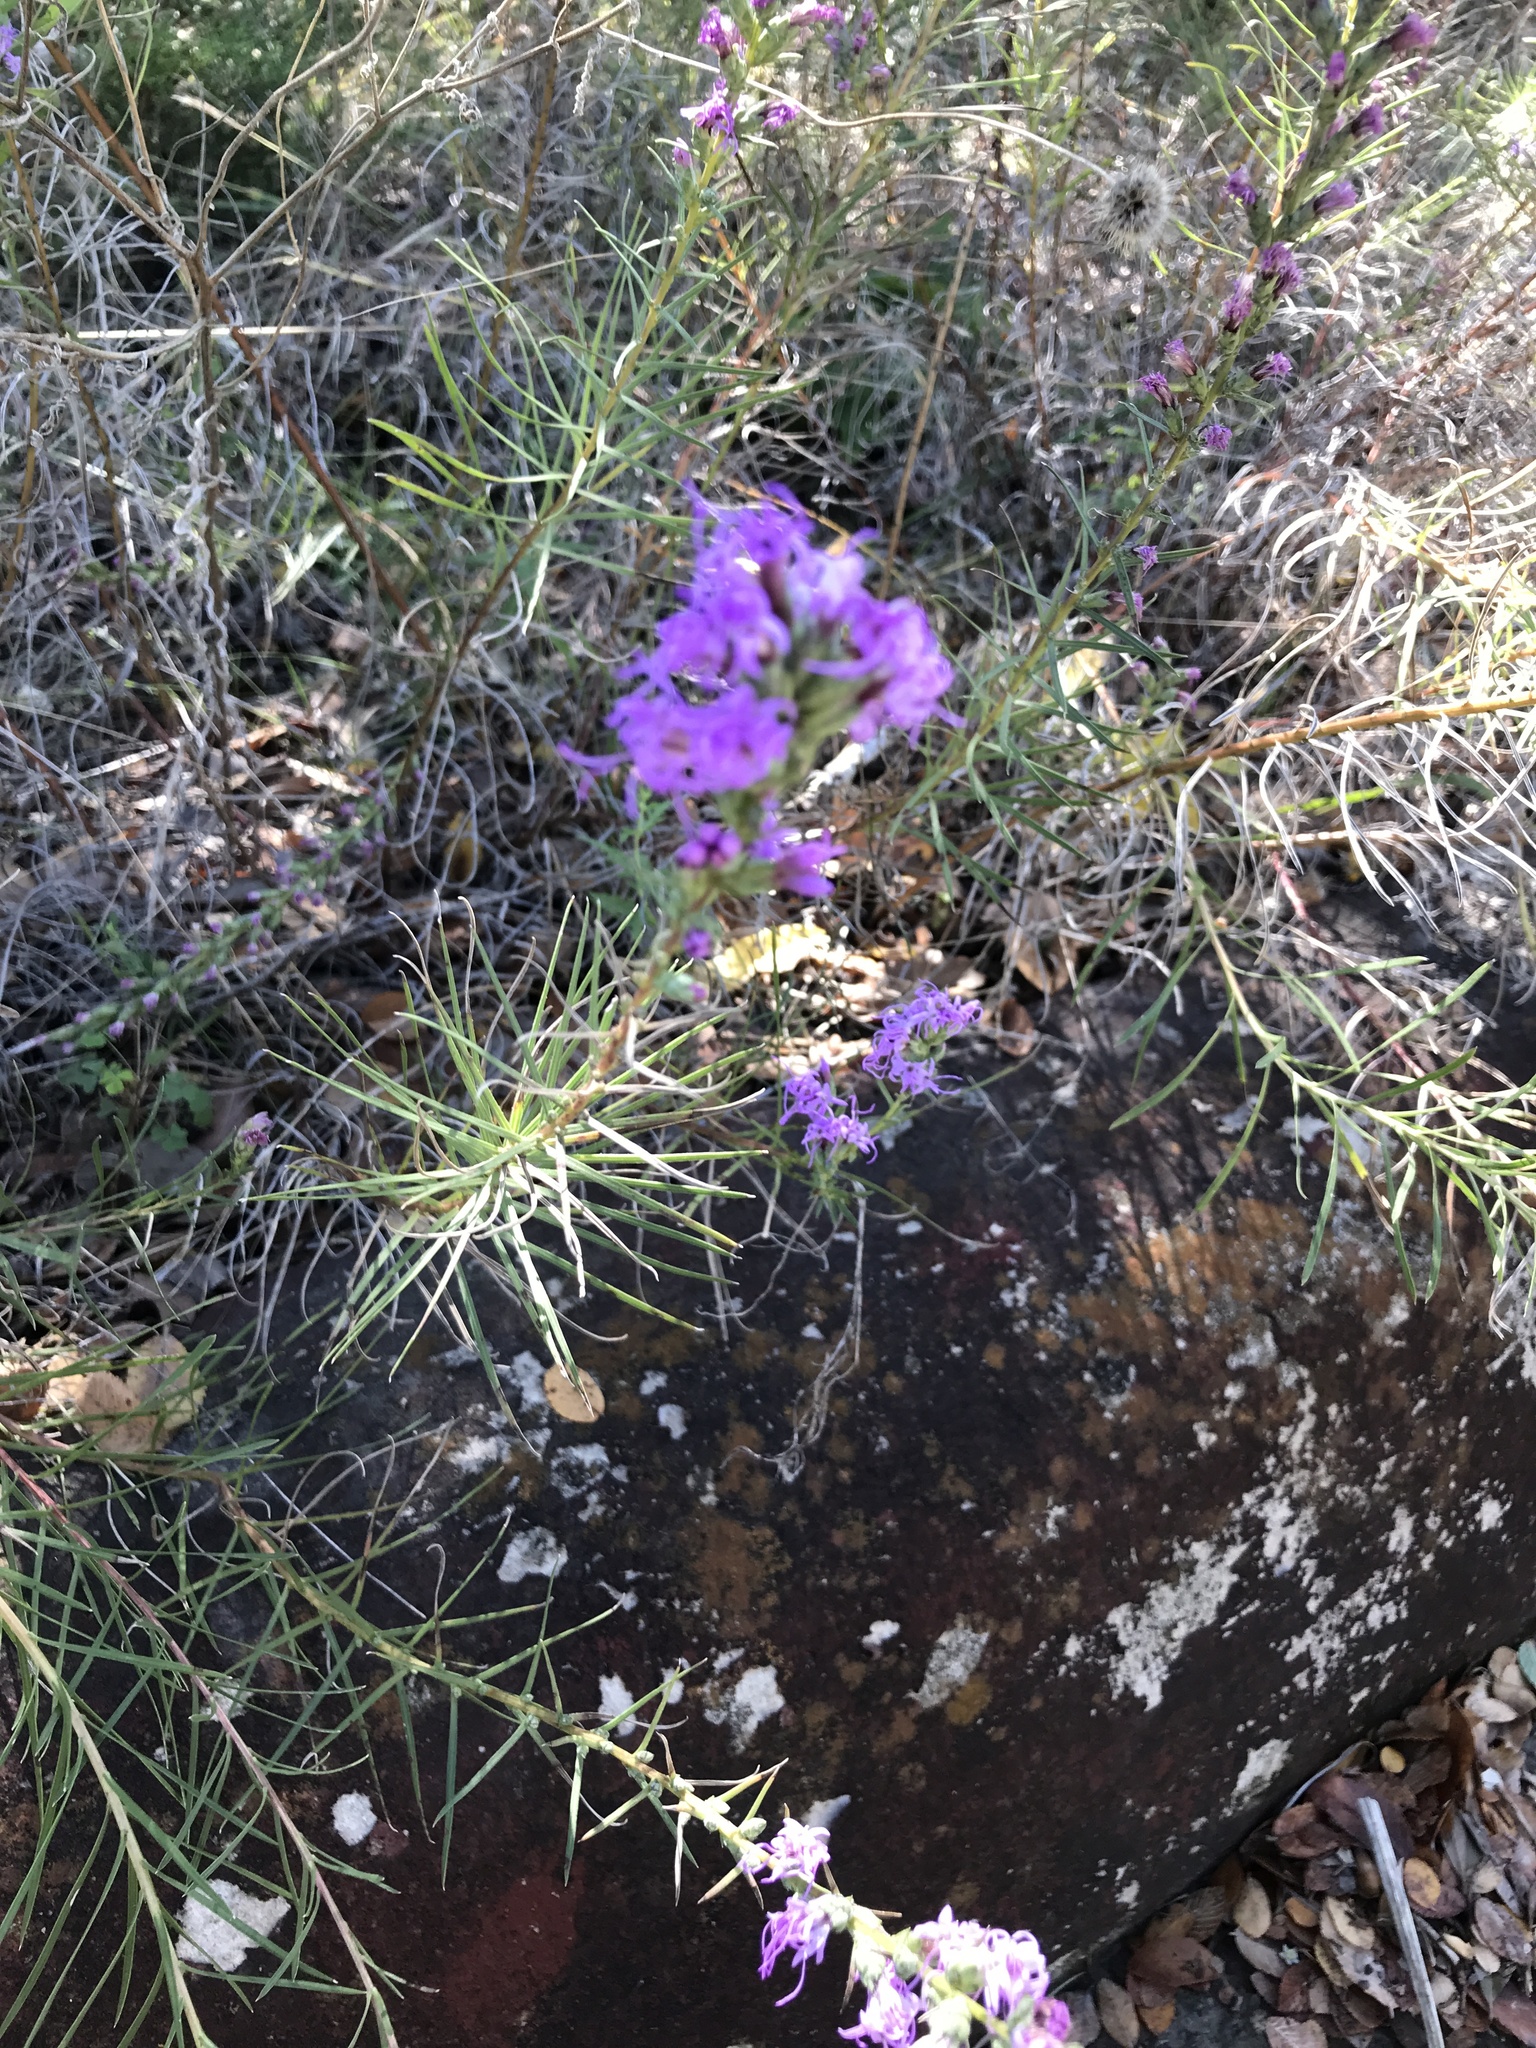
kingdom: Plantae
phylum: Tracheophyta
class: Magnoliopsida
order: Asterales
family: Asteraceae
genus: Liatris
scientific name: Liatris punctata
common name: Dotted gayfeather
